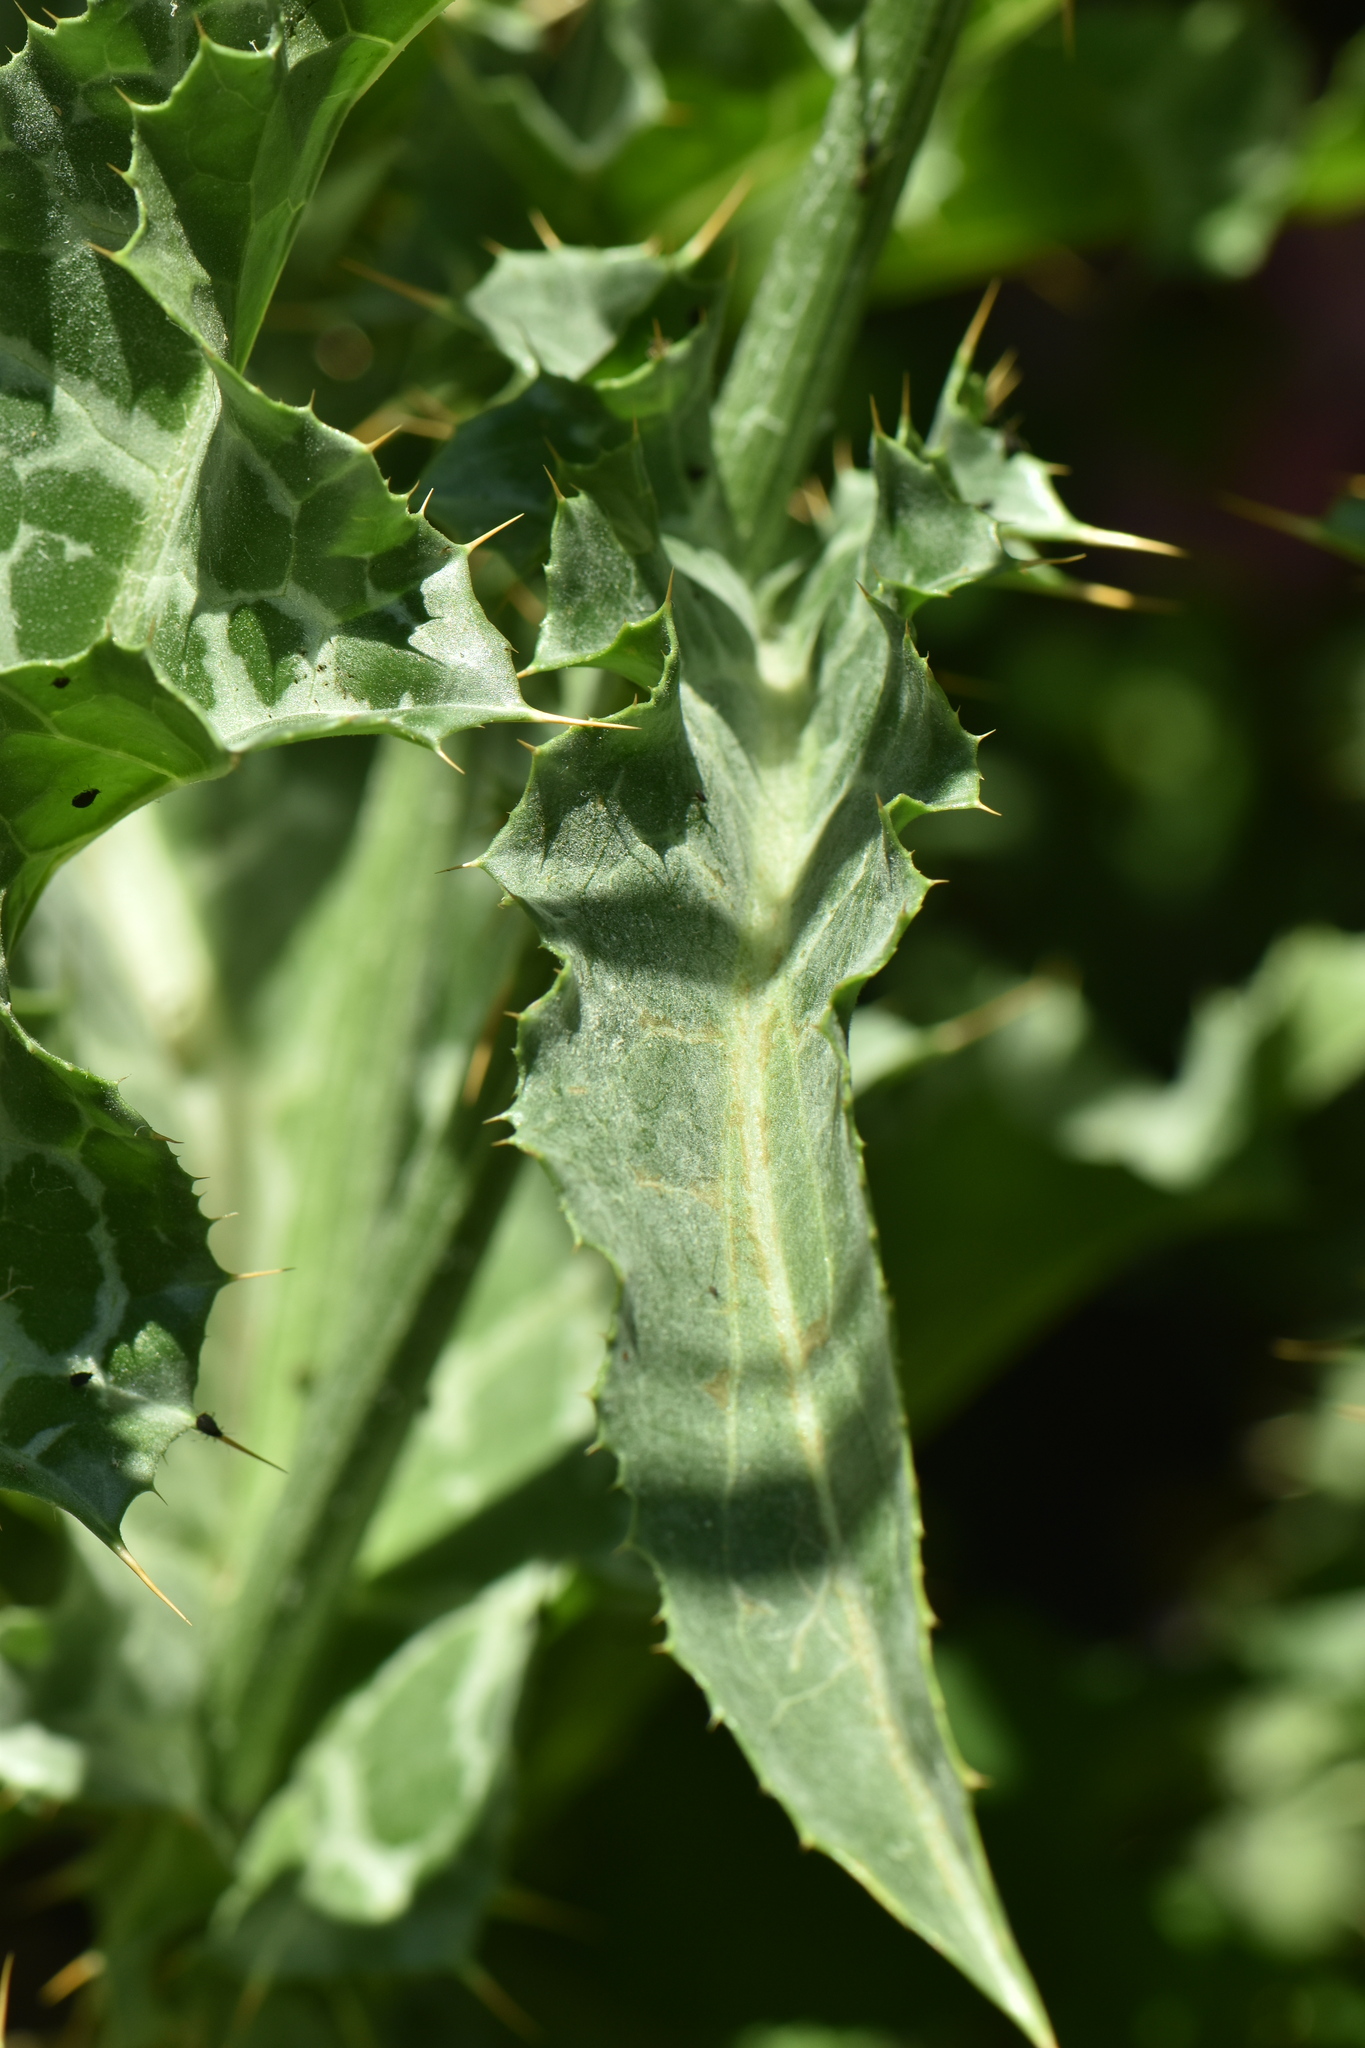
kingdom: Plantae
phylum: Tracheophyta
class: Magnoliopsida
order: Asterales
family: Asteraceae
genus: Silybum
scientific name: Silybum marianum
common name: Milk thistle
